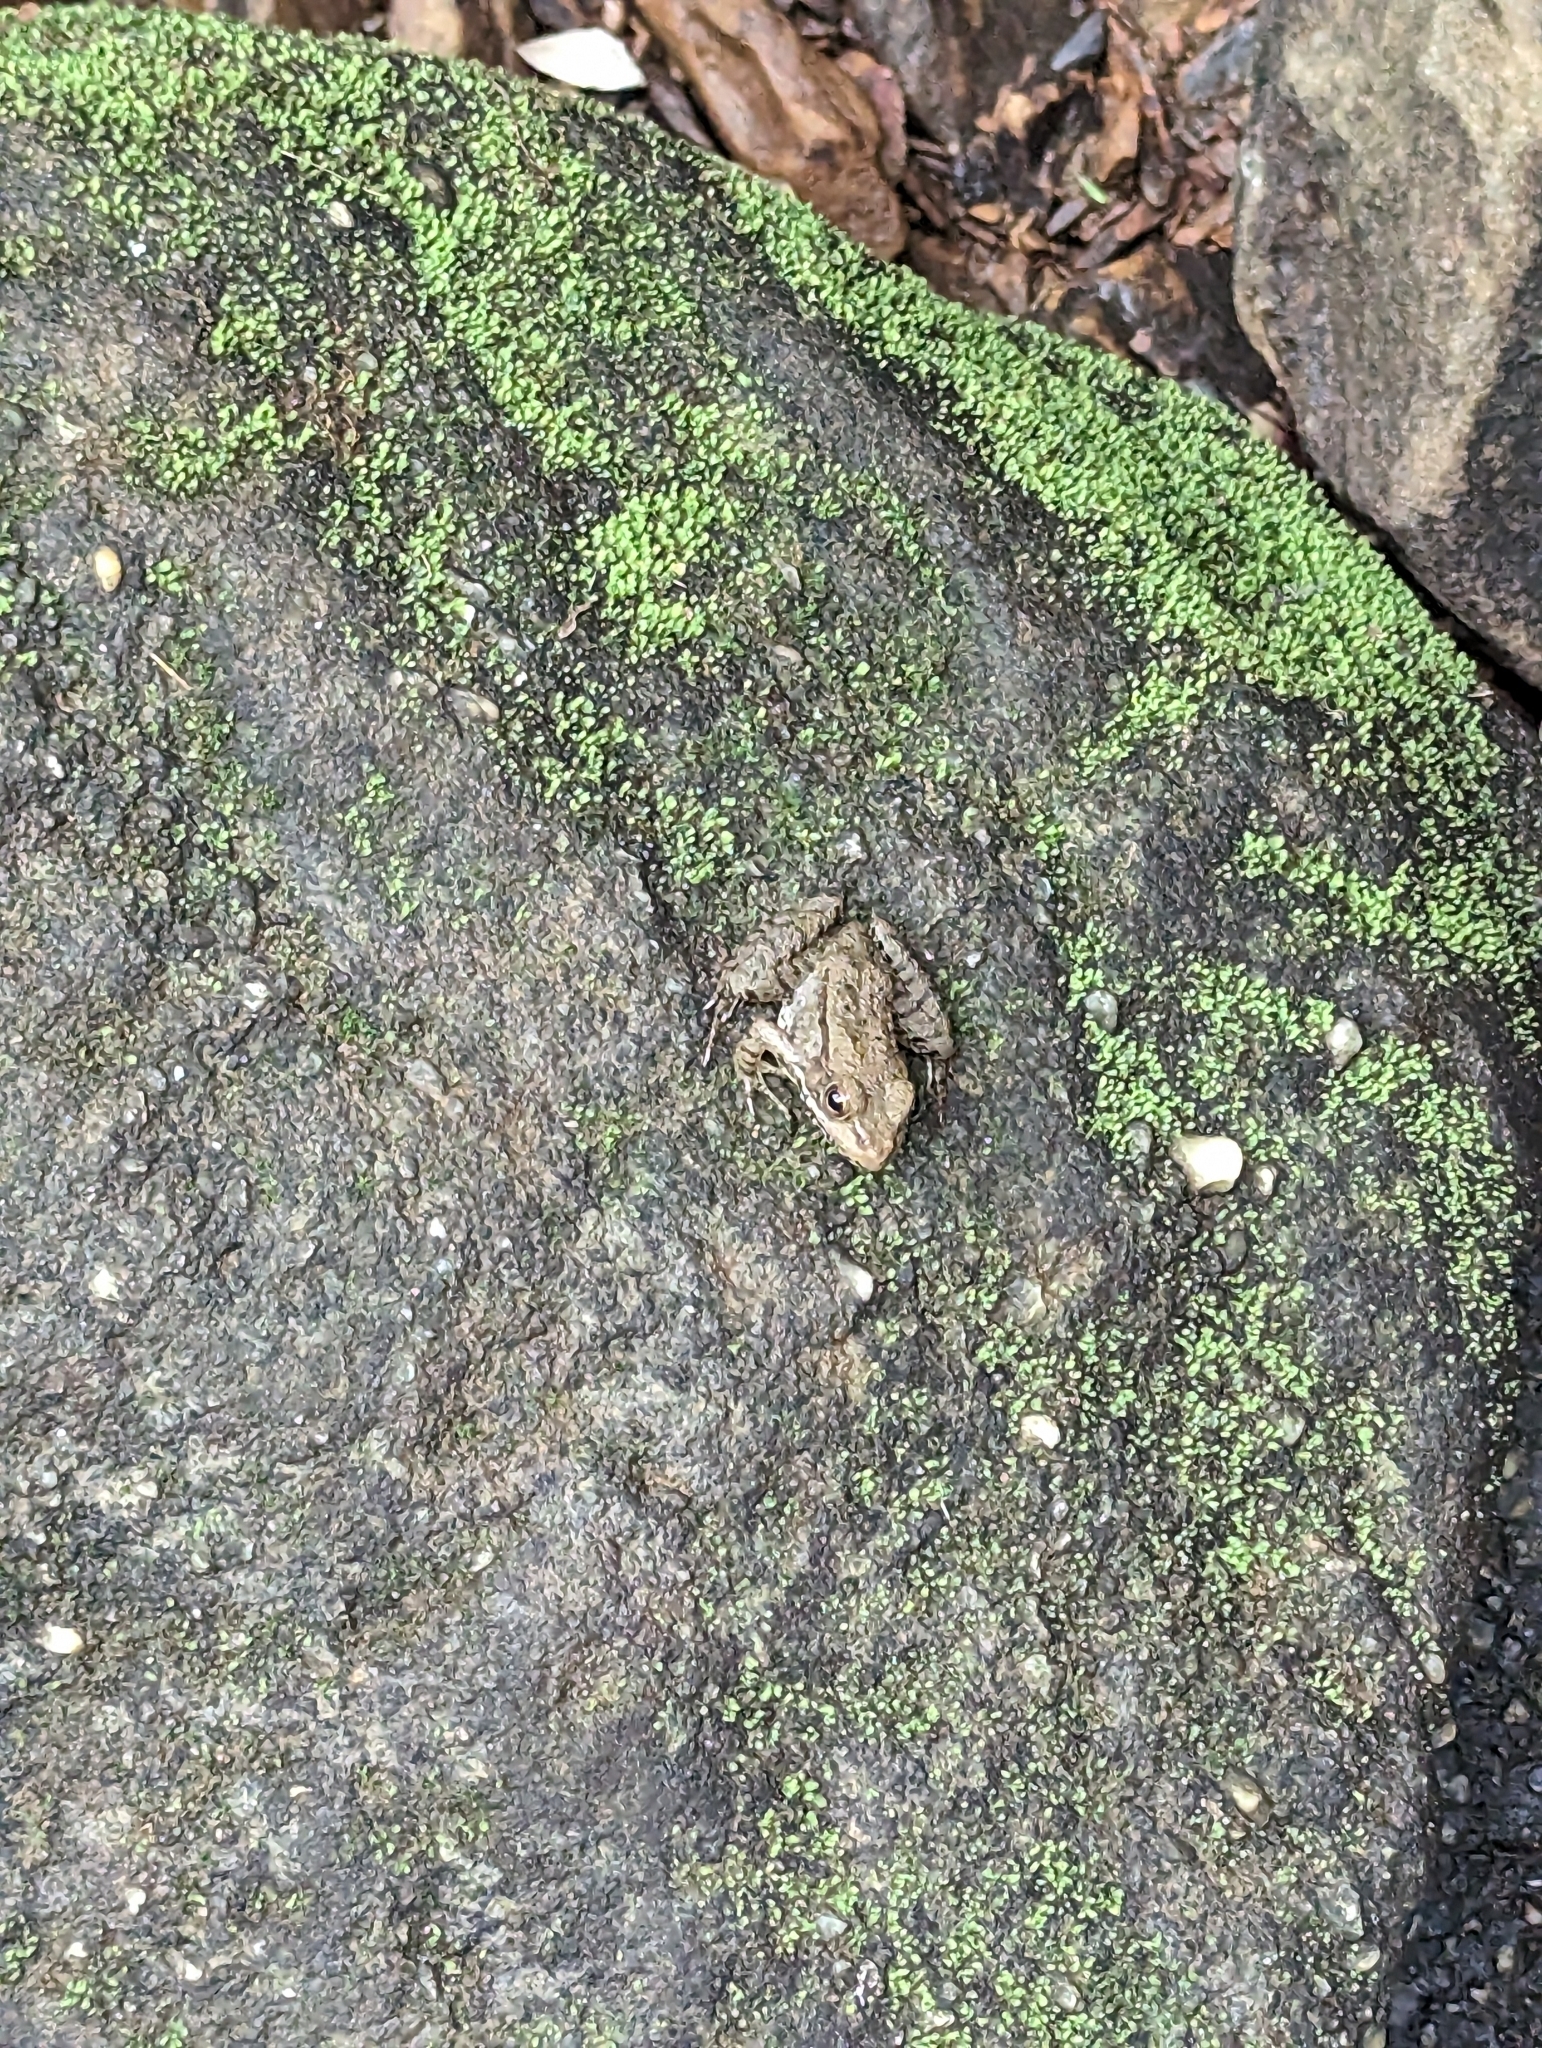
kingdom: Animalia
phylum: Chordata
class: Amphibia
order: Anura
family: Ranidae
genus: Lithobates
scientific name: Lithobates clamitans
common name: Green frog
